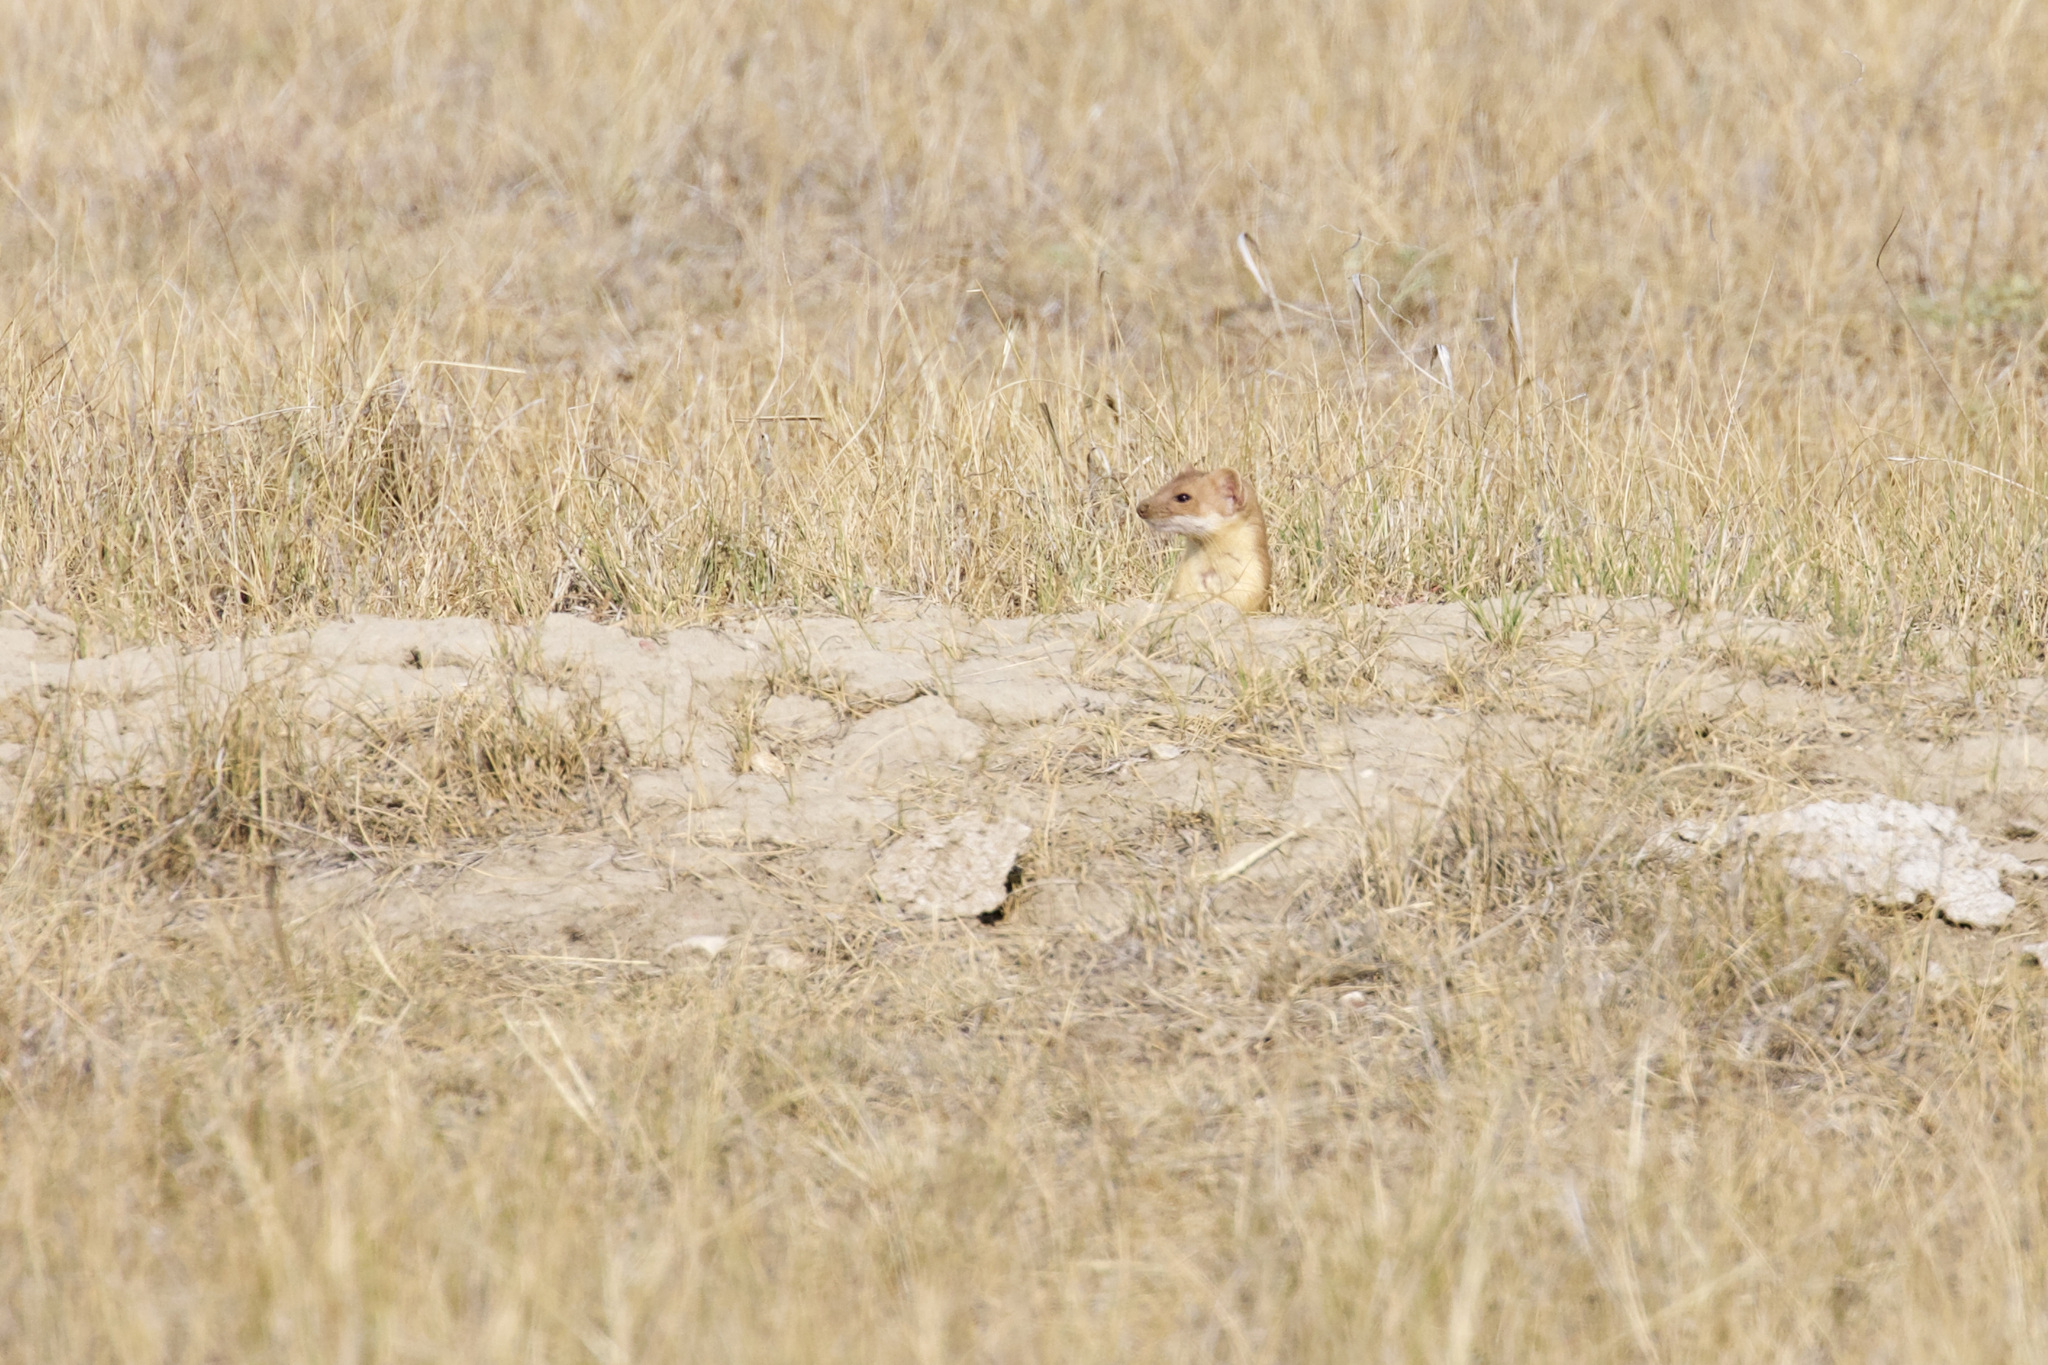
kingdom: Animalia
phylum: Chordata
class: Mammalia
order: Carnivora
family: Mustelidae
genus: Mustela
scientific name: Mustela
